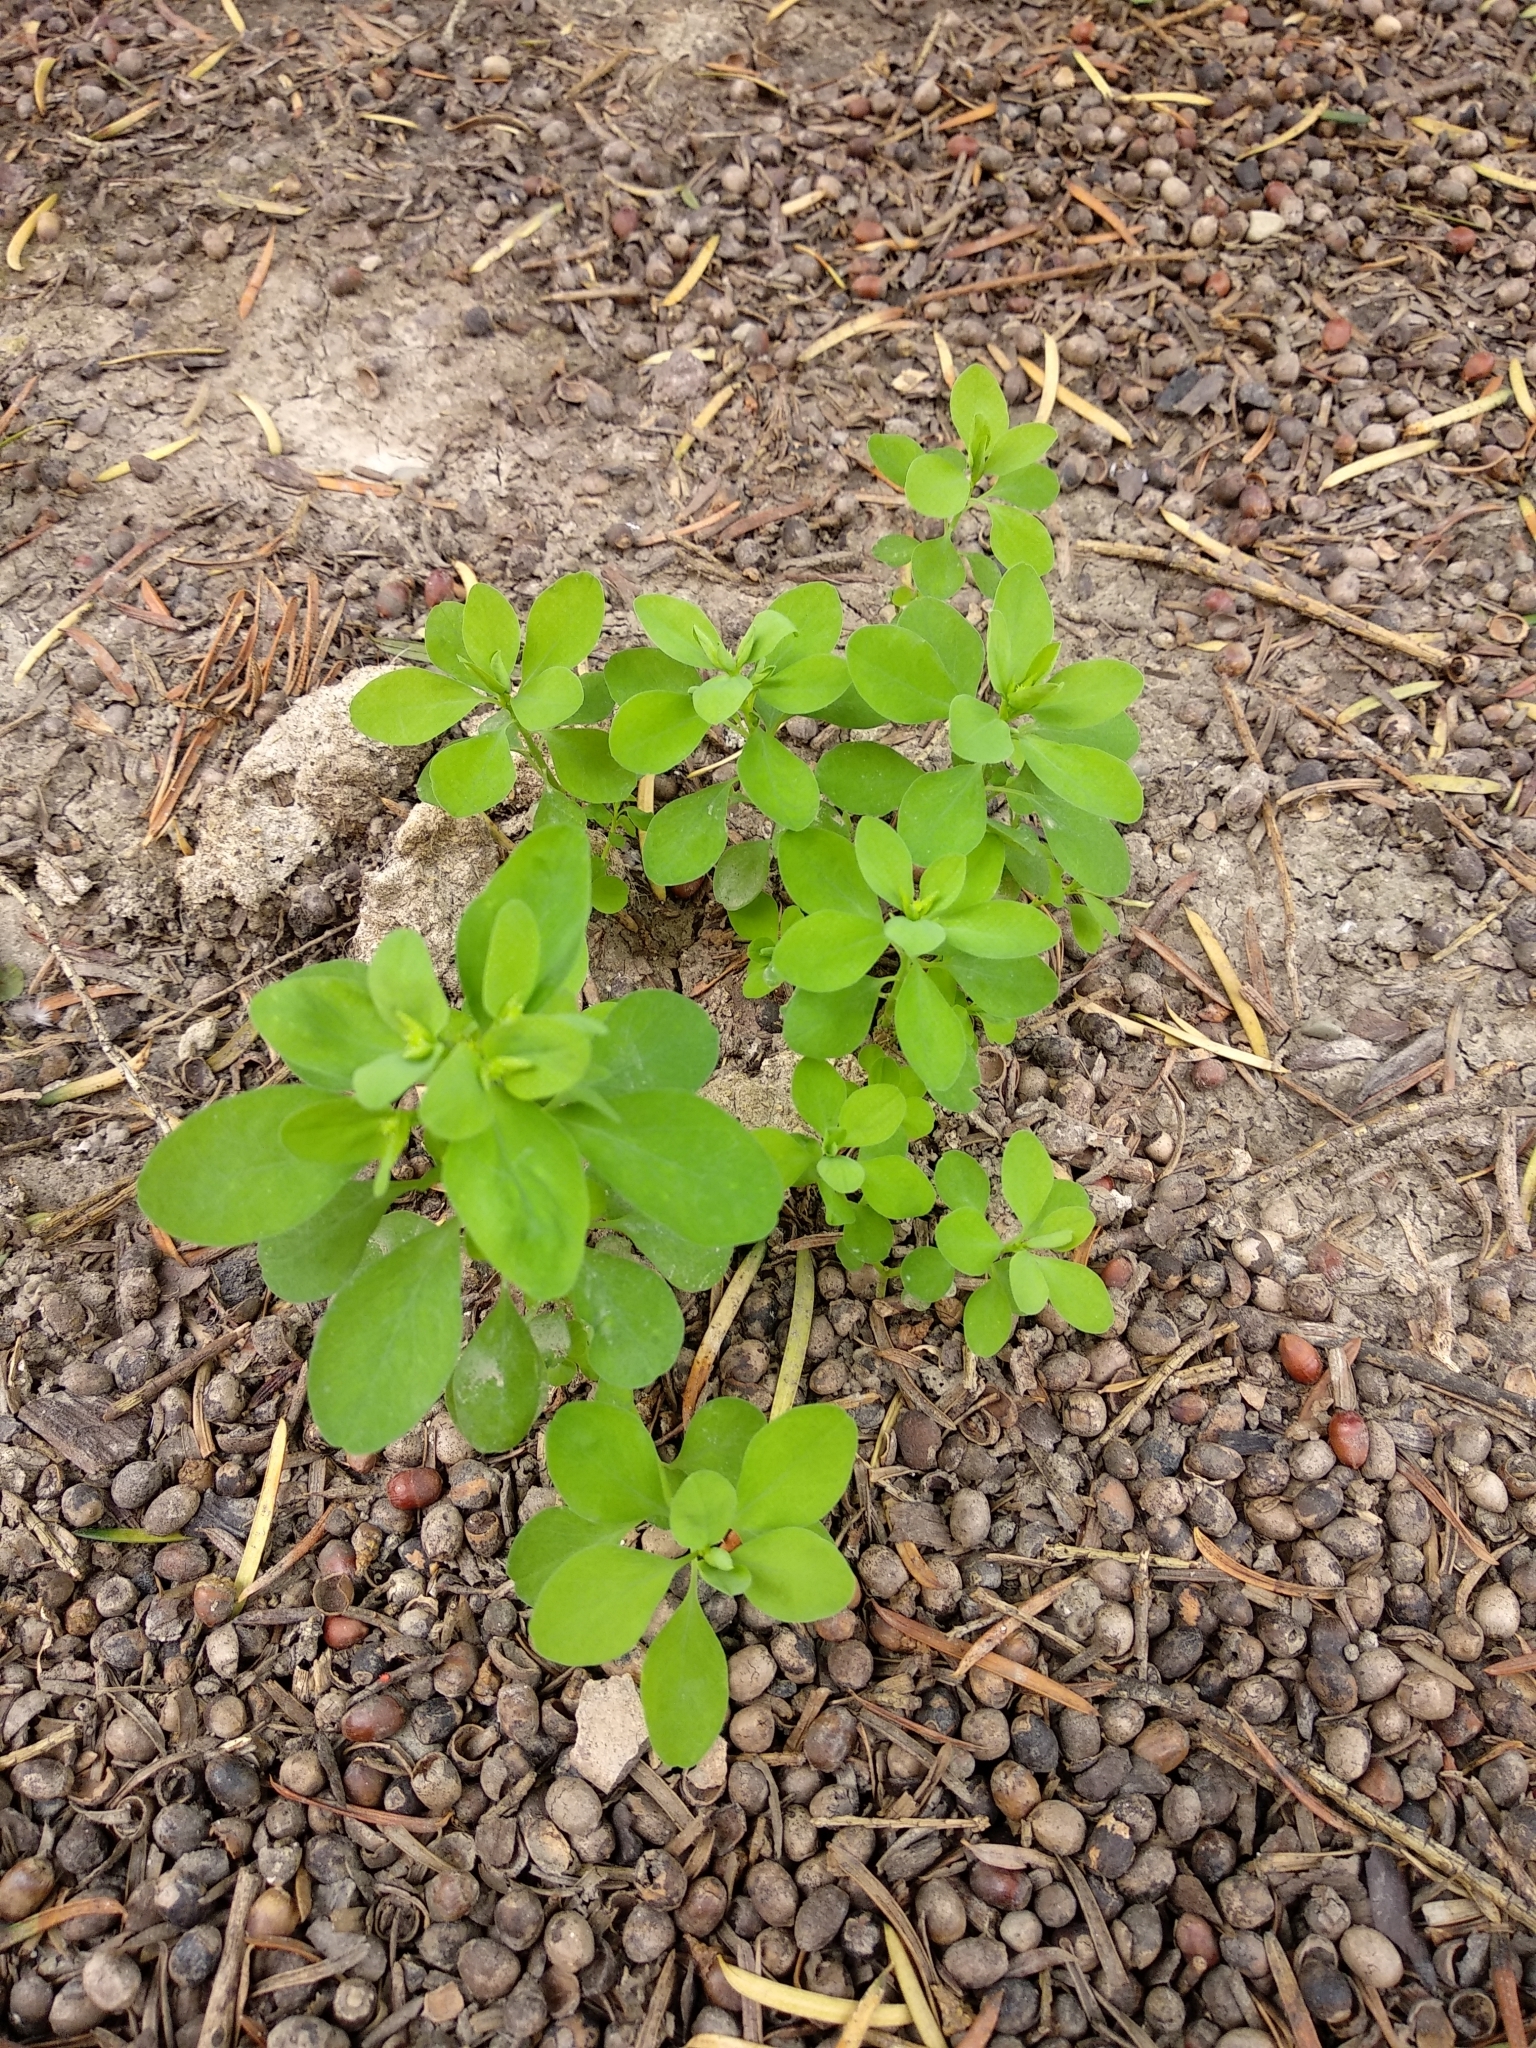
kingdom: Plantae
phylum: Tracheophyta
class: Magnoliopsida
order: Malpighiales
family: Euphorbiaceae
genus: Euphorbia
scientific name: Euphorbia peplus
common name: Petty spurge
